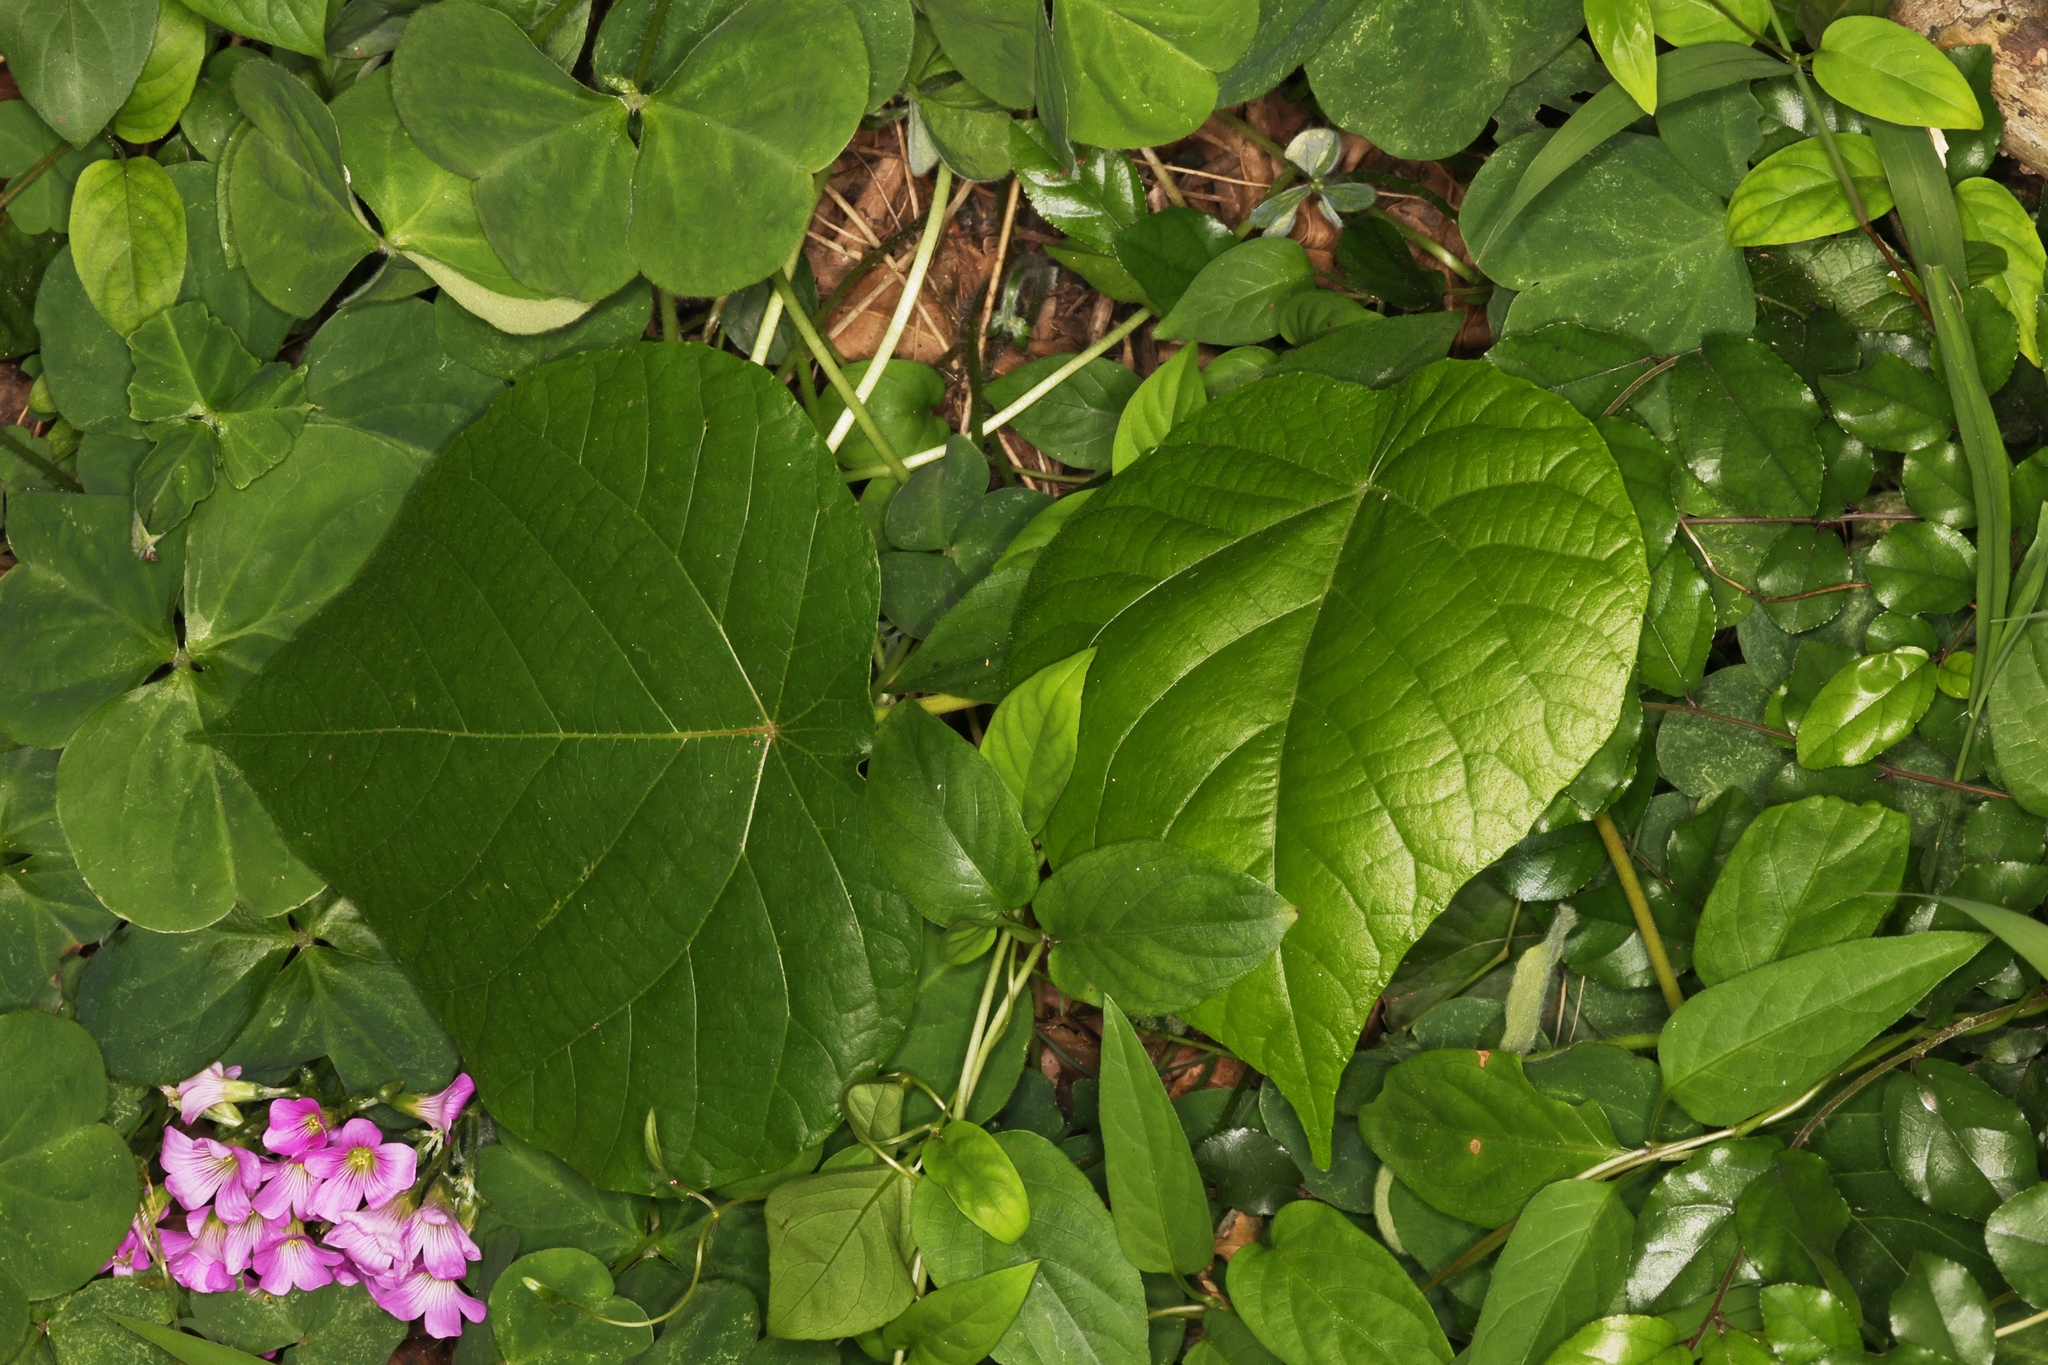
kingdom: Plantae
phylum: Tracheophyta
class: Magnoliopsida
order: Malpighiales
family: Euphorbiaceae
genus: Macaranga
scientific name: Macaranga tanarius
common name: Parasol leaf tree
